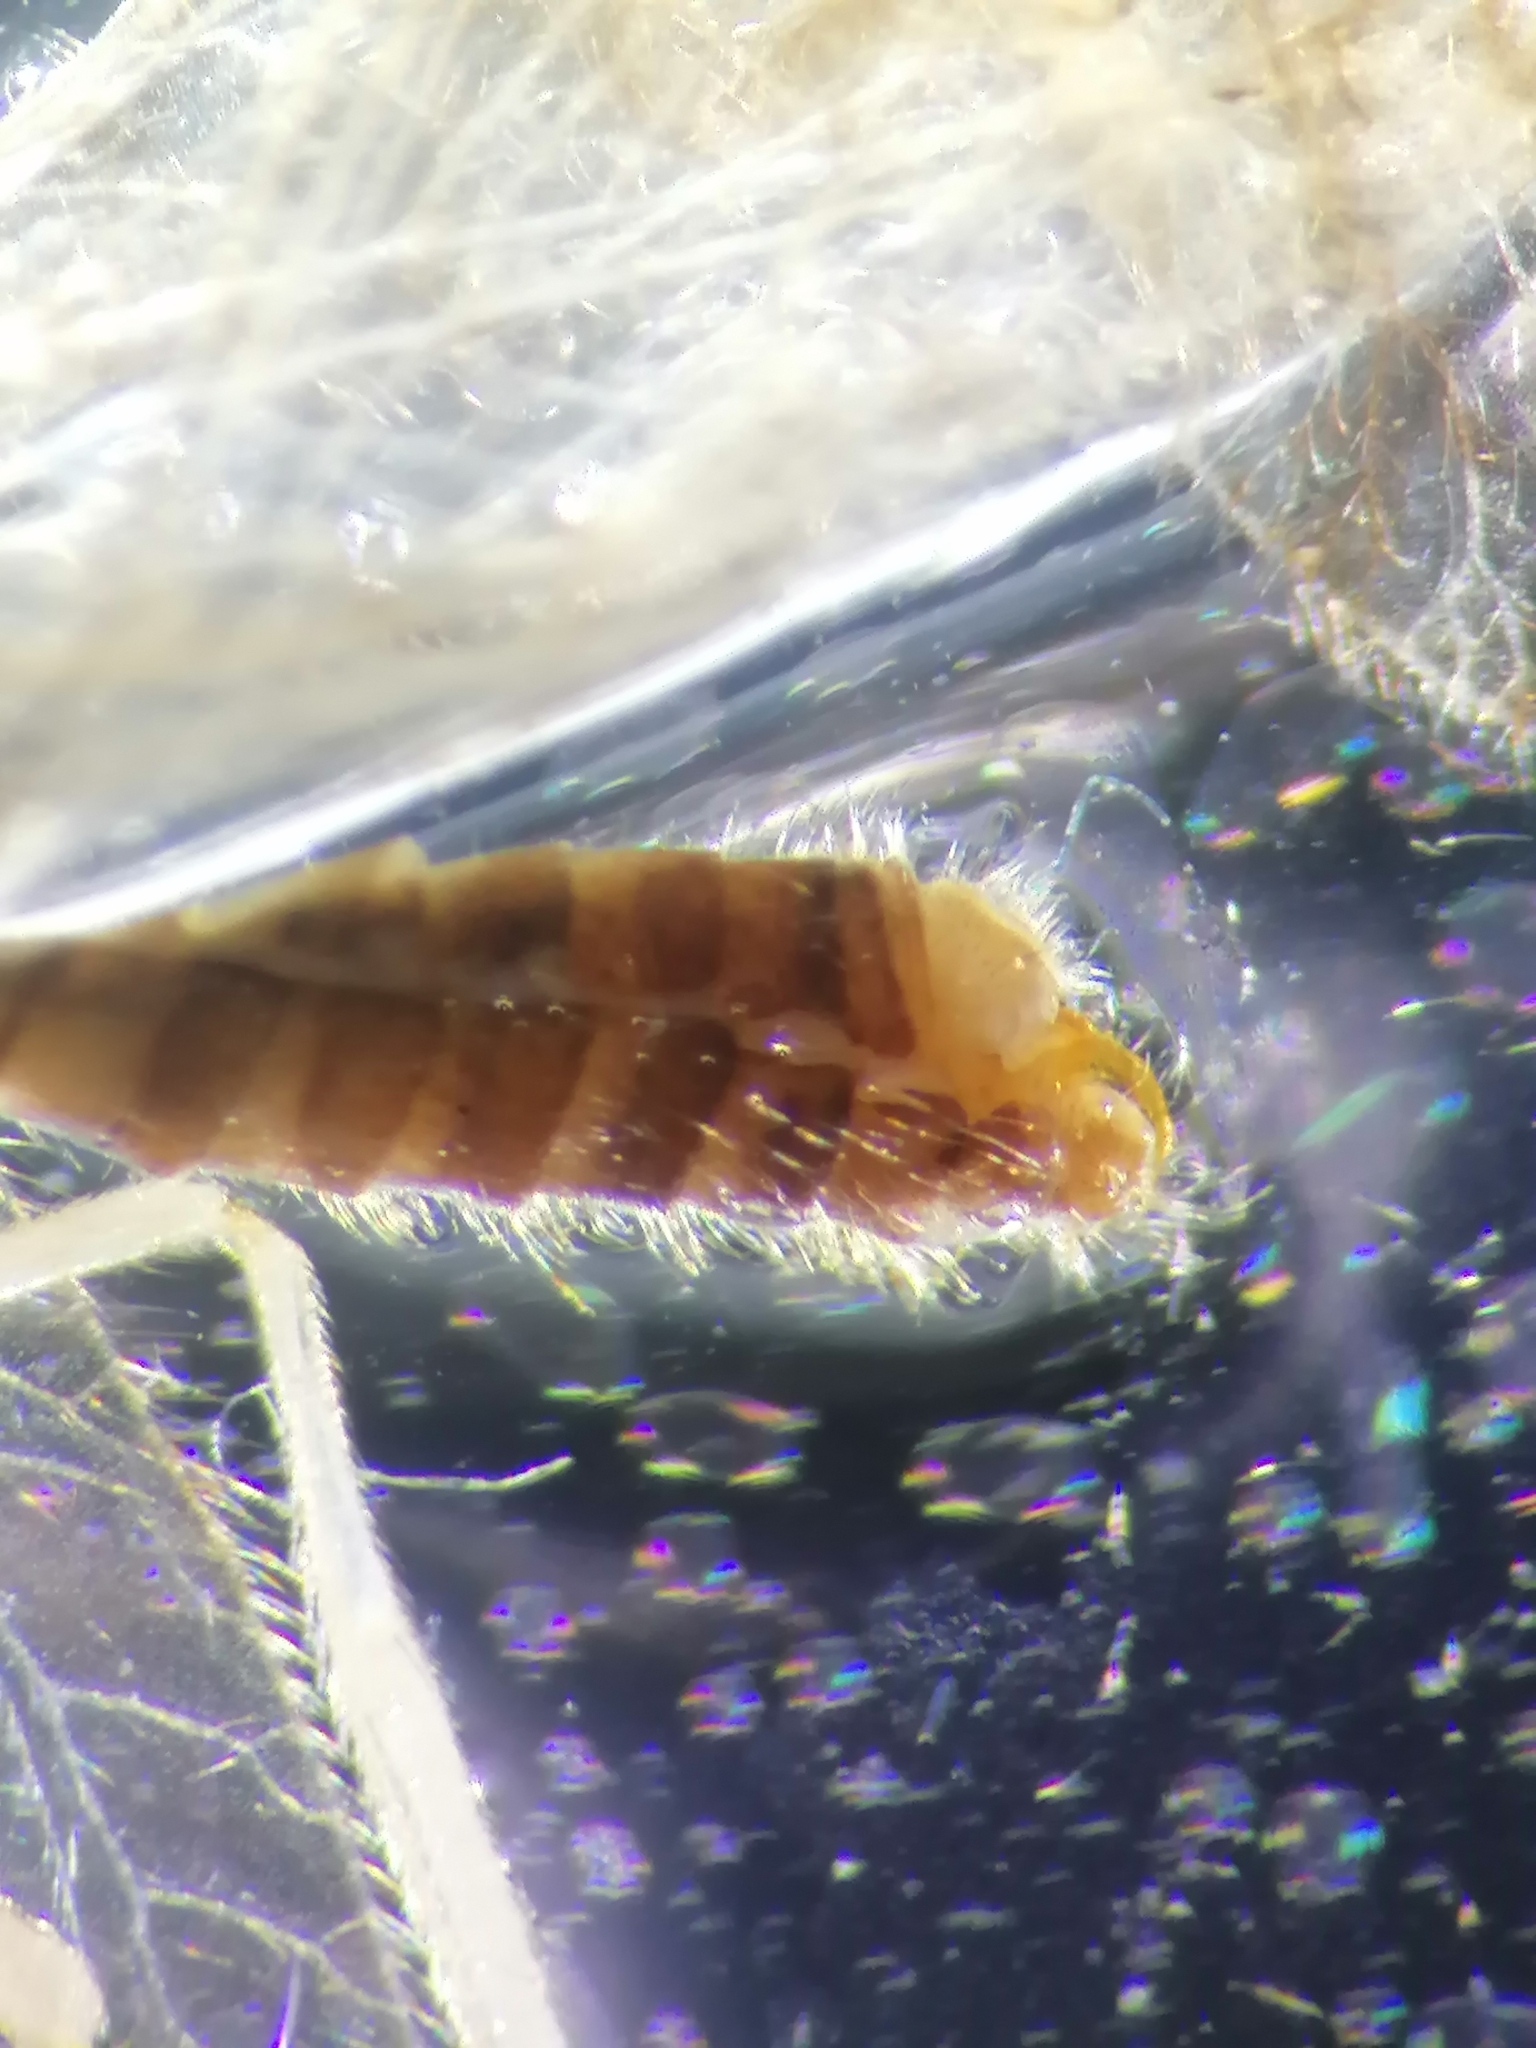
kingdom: Animalia
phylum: Arthropoda
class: Insecta
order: Neuroptera
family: Hemerobiidae
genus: Micromus
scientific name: Micromus paganus
